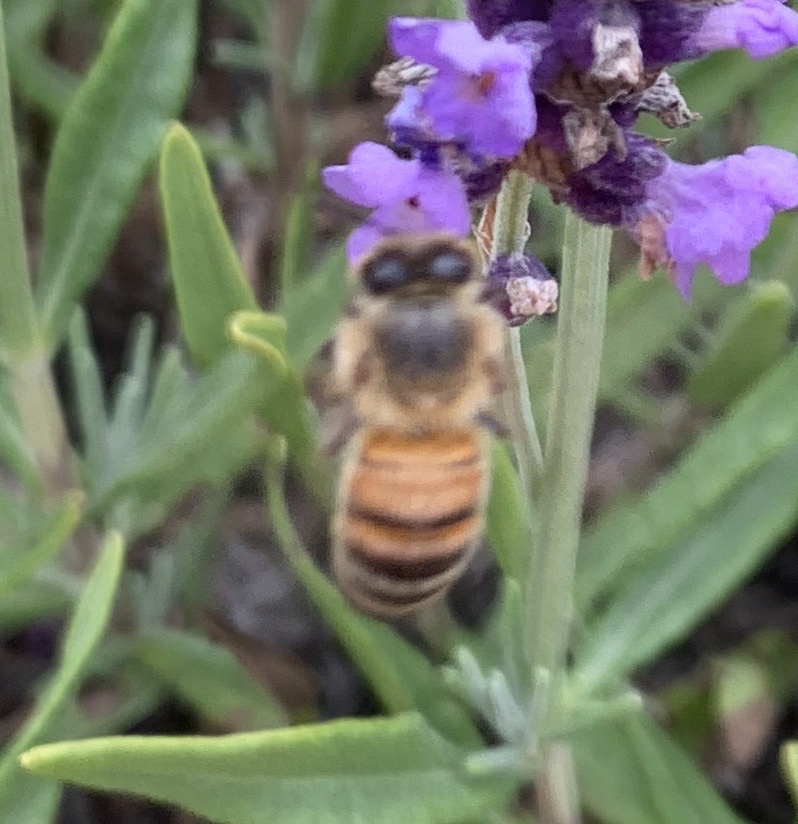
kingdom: Animalia
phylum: Arthropoda
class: Insecta
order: Hymenoptera
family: Apidae
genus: Apis
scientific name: Apis mellifera
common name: Honey bee
